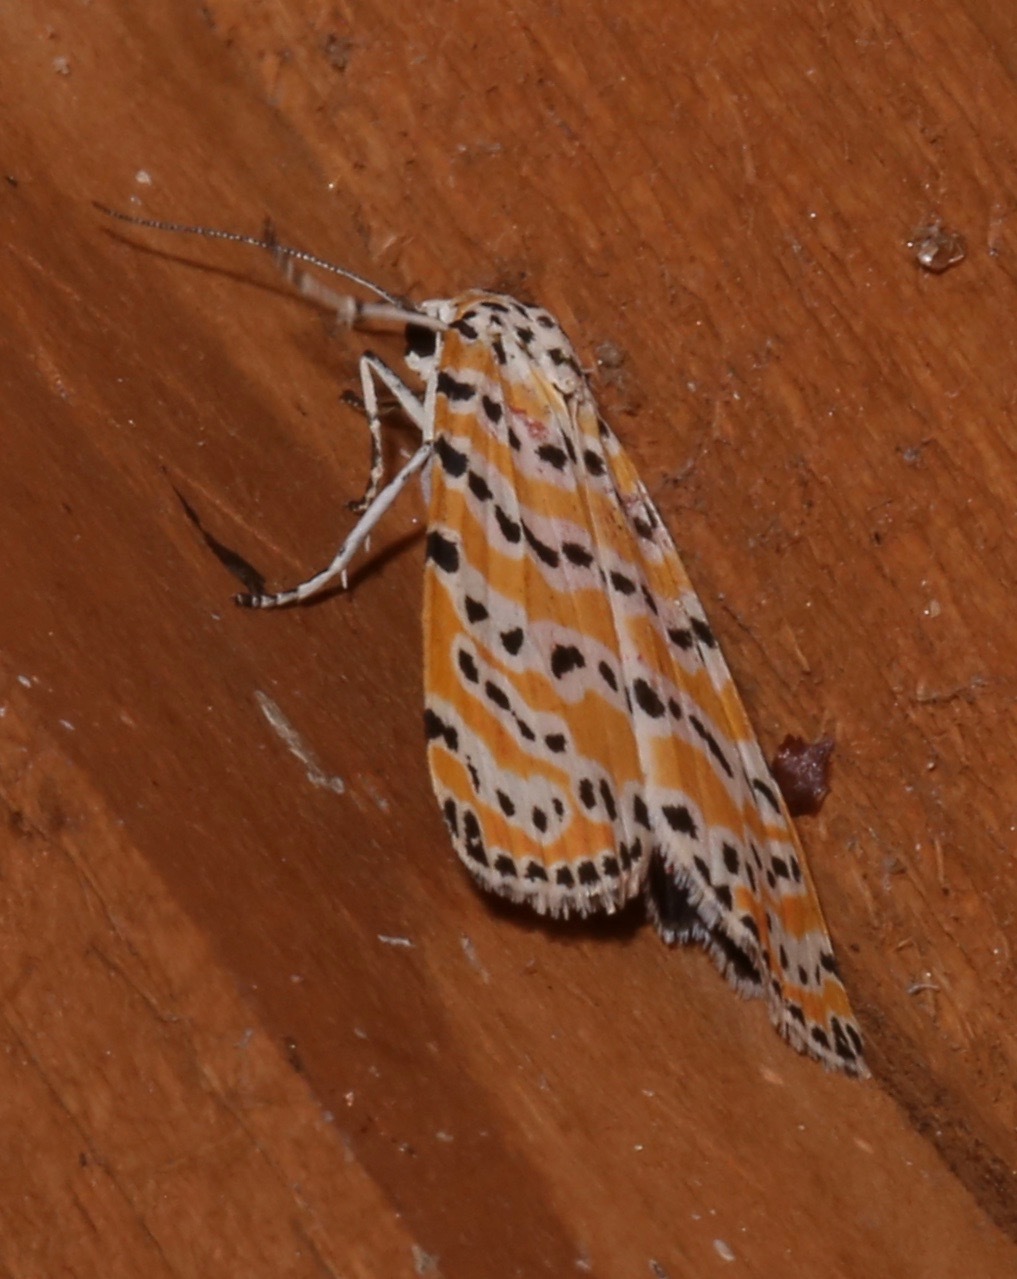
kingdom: Animalia
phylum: Arthropoda
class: Insecta
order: Lepidoptera
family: Erebidae
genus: Utetheisa
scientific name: Utetheisa ornatrix
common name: Beautiful utetheisa
